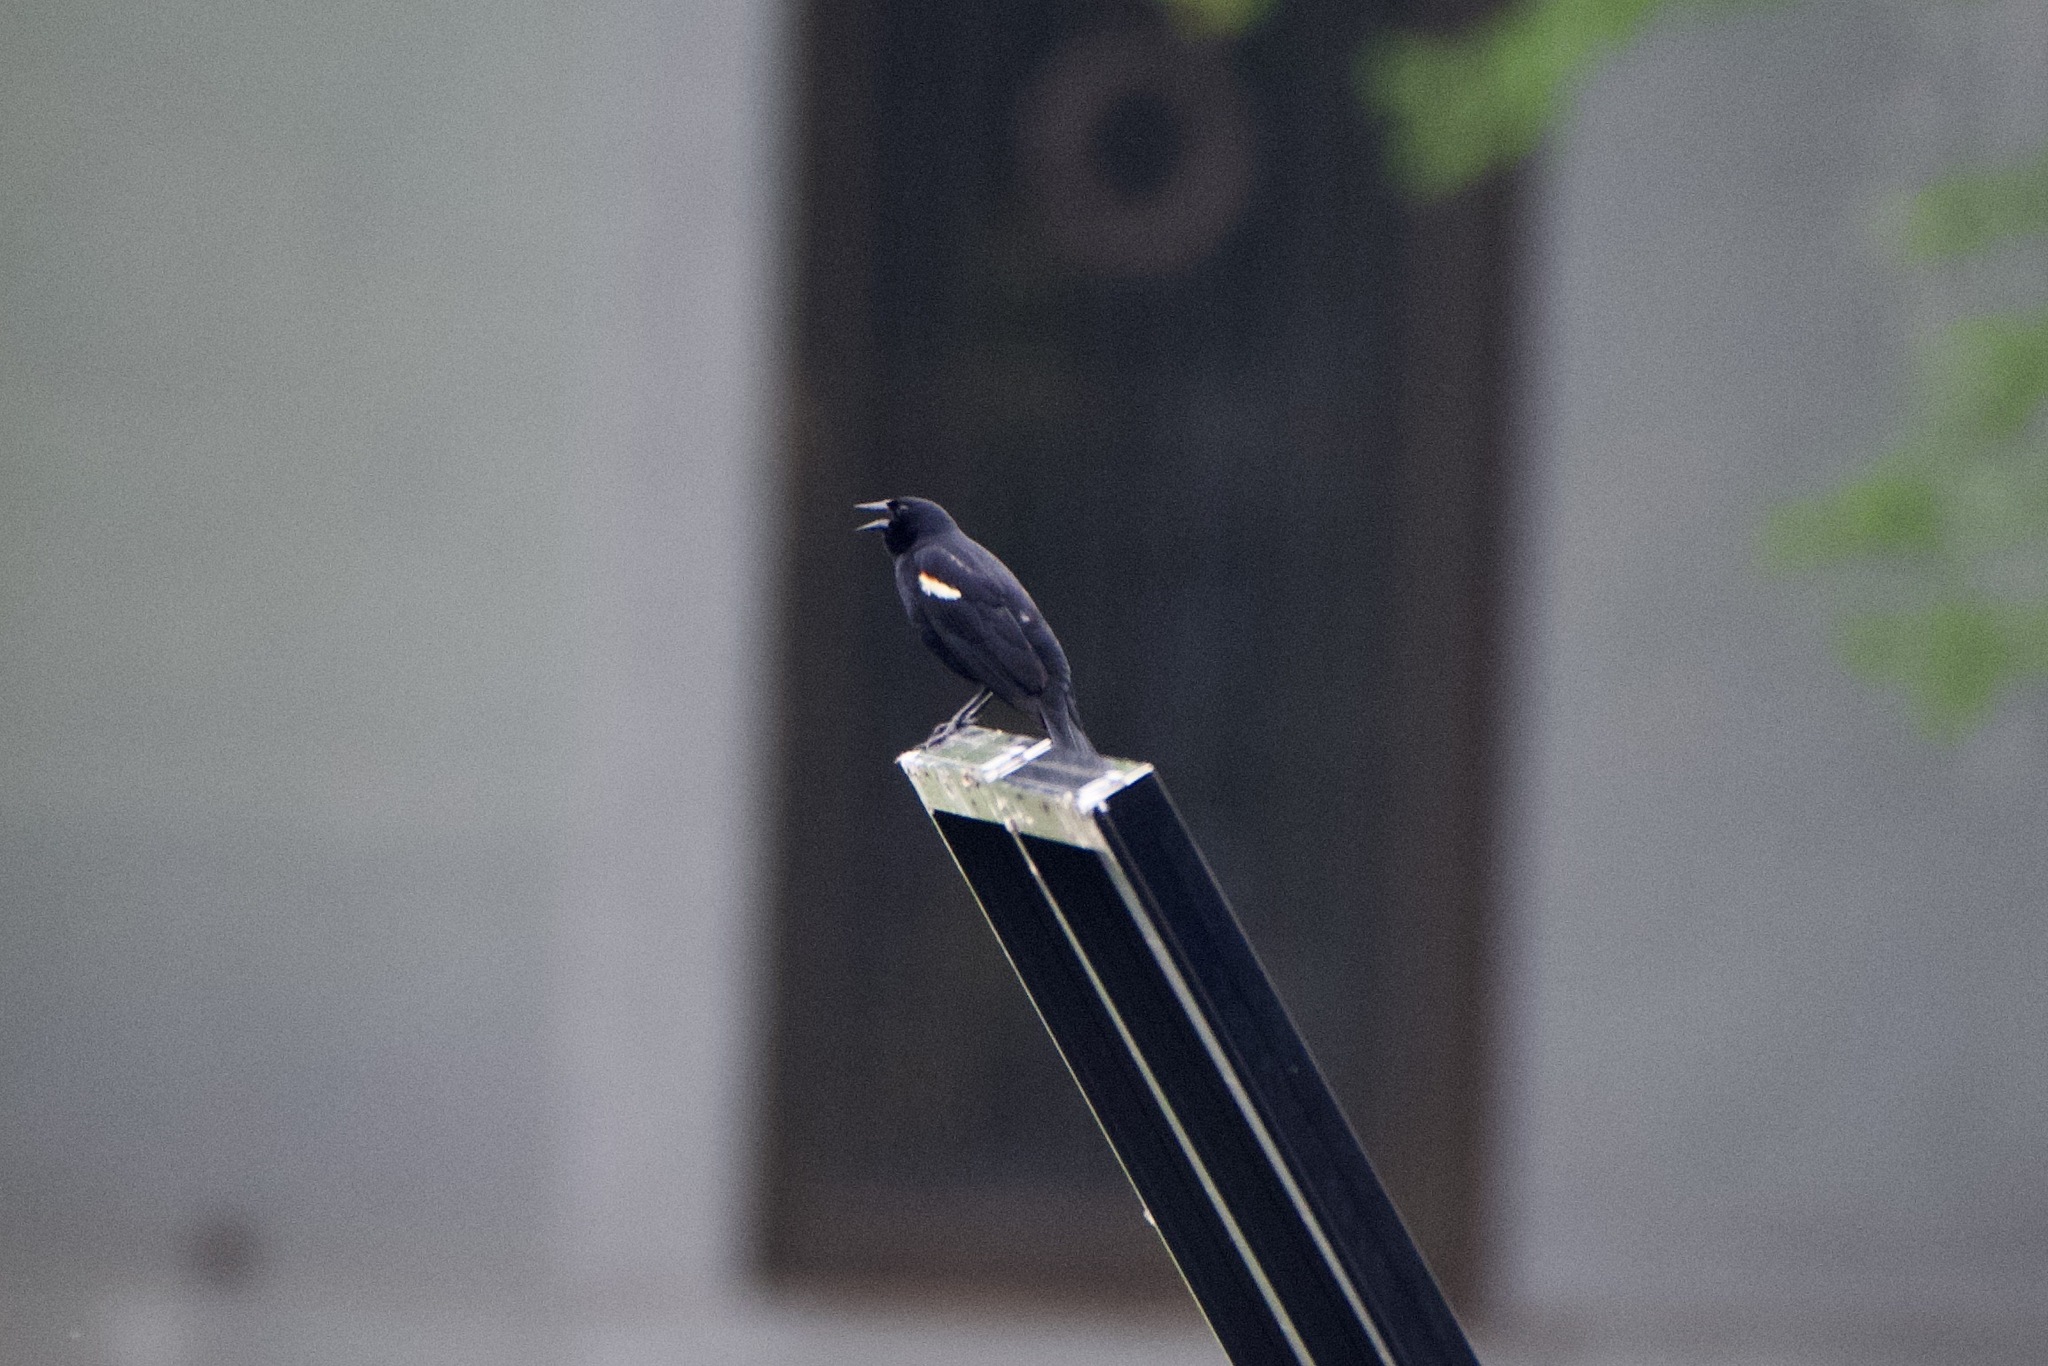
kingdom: Animalia
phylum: Chordata
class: Aves
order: Passeriformes
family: Icteridae
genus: Agelaius
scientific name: Agelaius phoeniceus
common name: Red-winged blackbird
